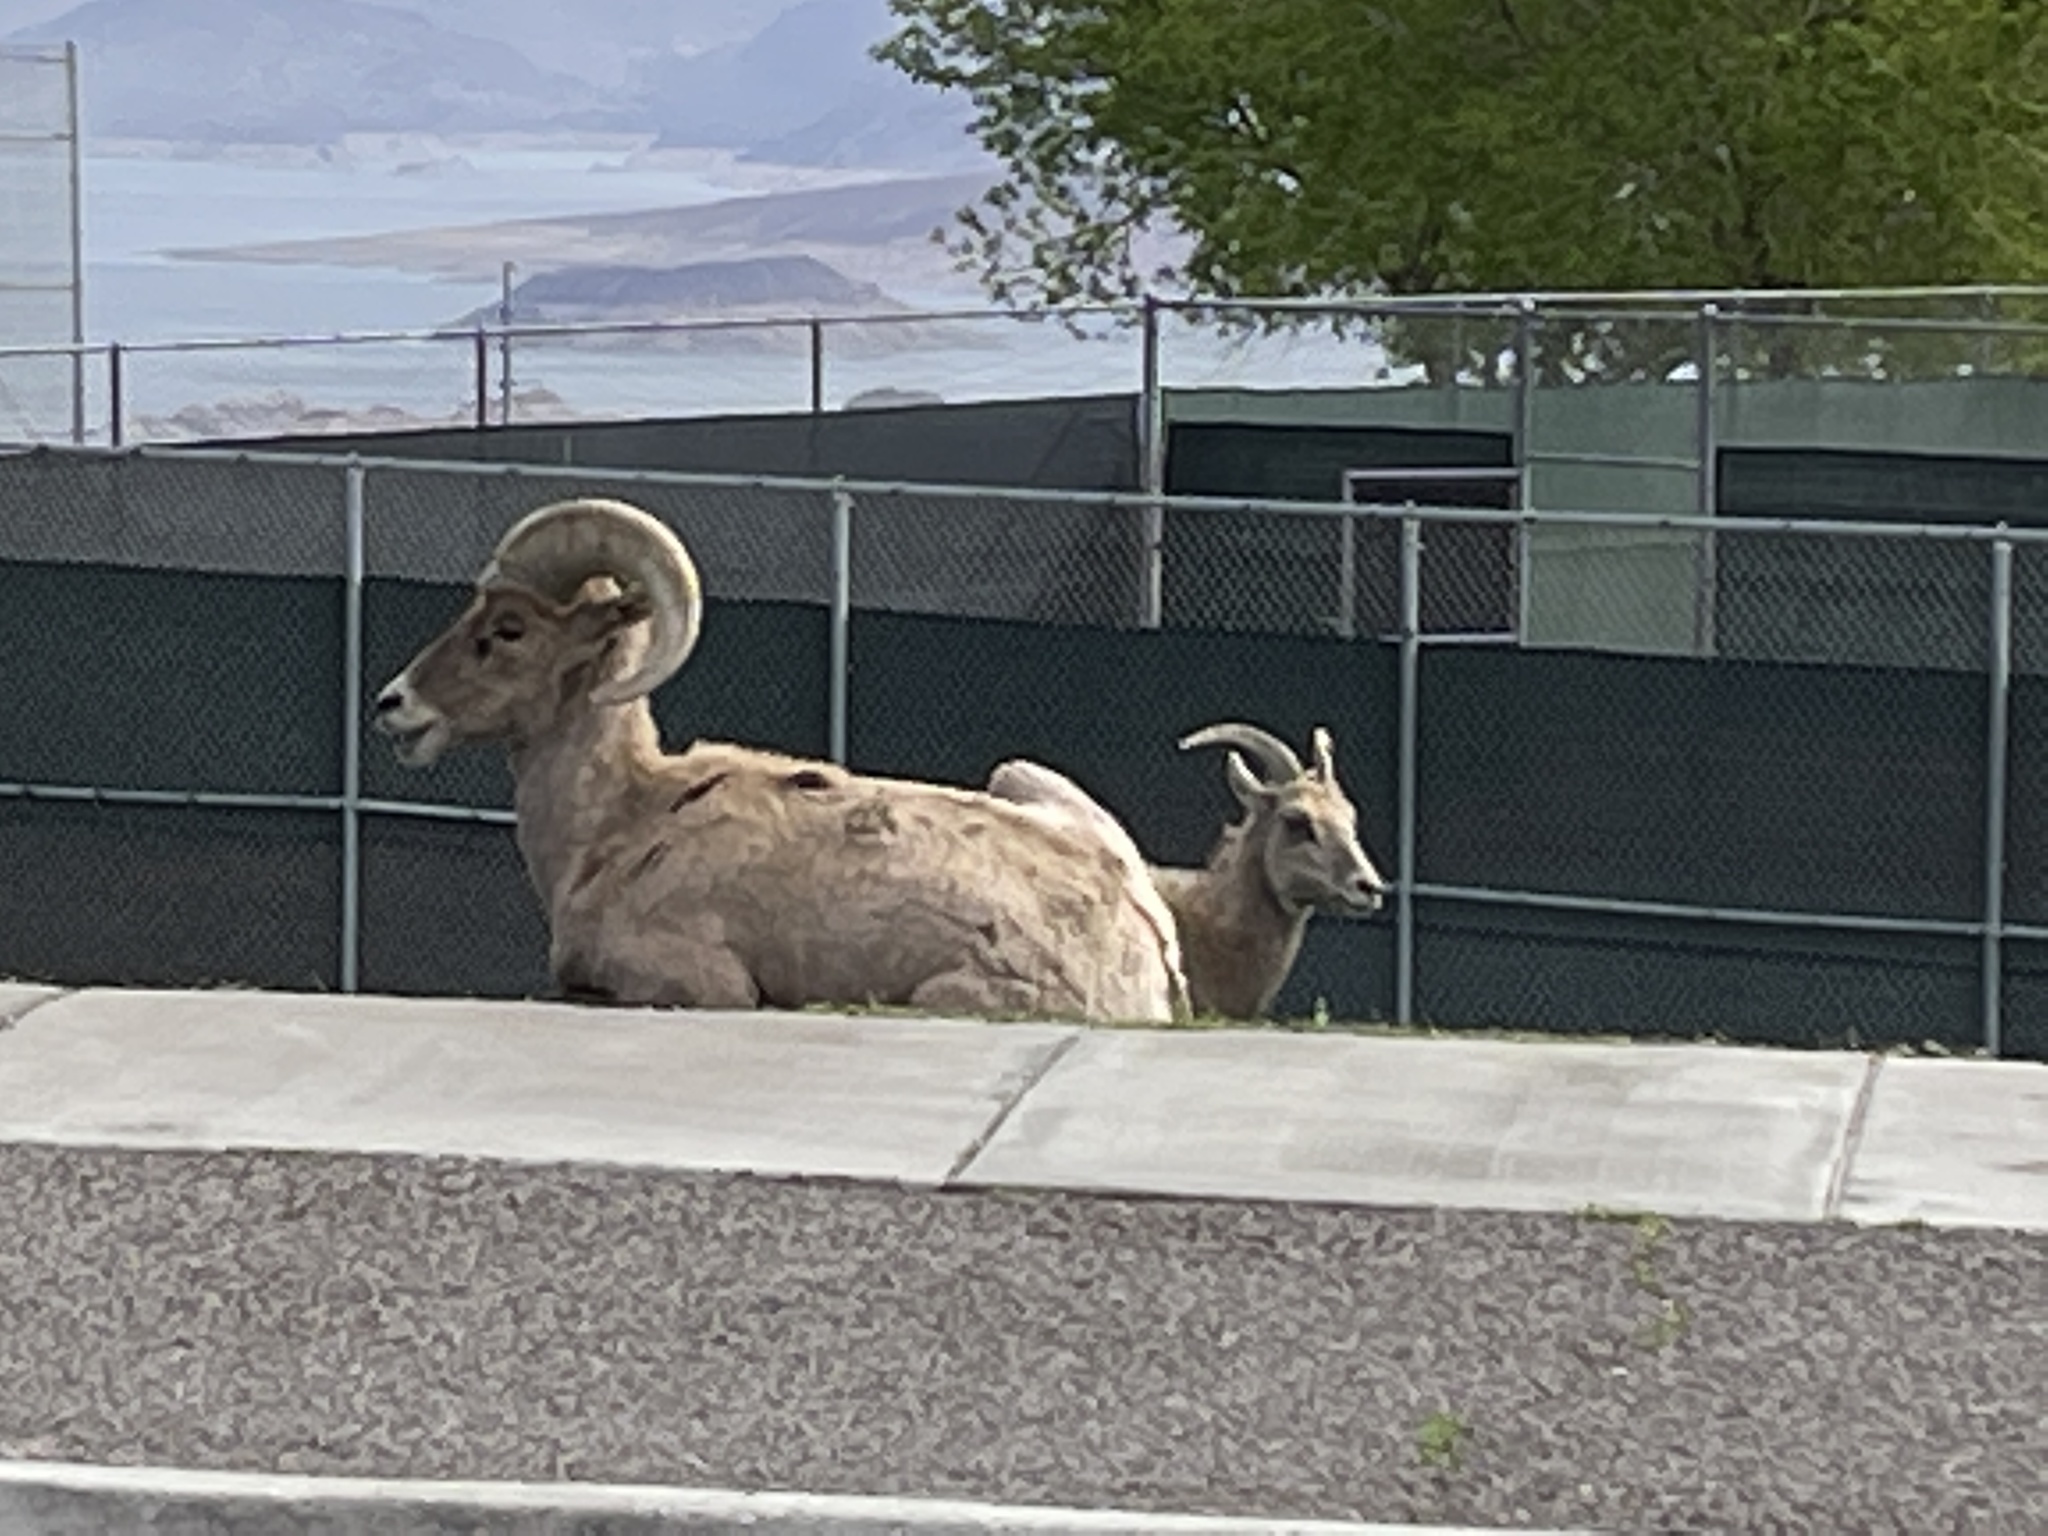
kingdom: Animalia
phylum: Chordata
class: Mammalia
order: Artiodactyla
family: Bovidae
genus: Ovis
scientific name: Ovis canadensis
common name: Bighorn sheep
